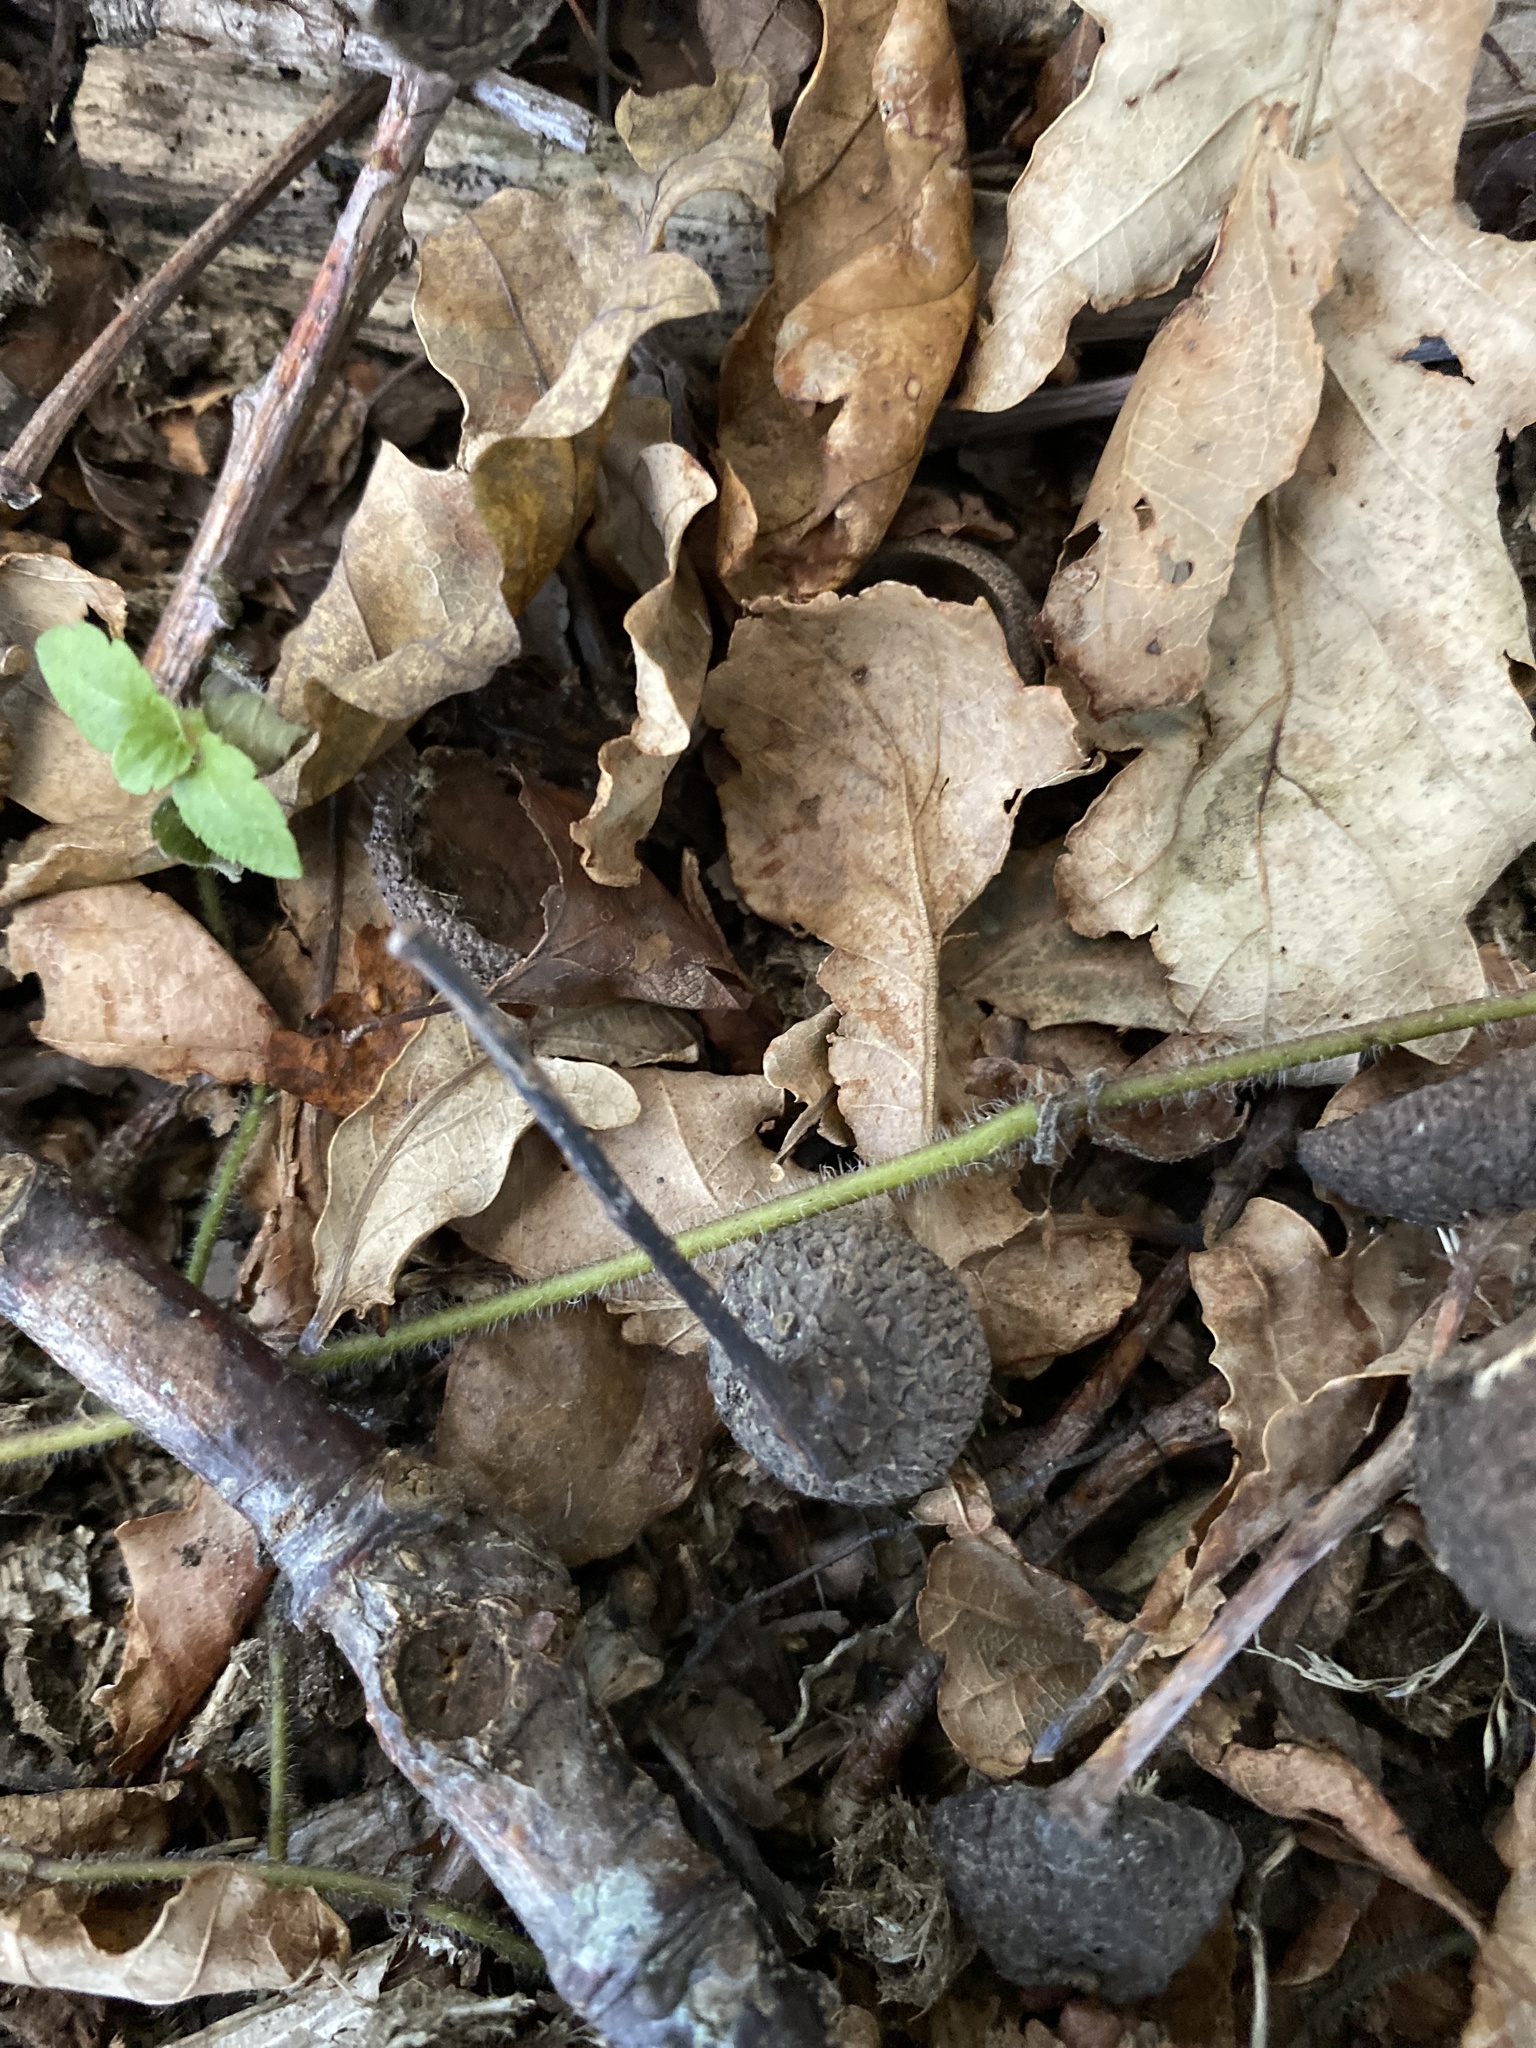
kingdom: Plantae
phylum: Tracheophyta
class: Magnoliopsida
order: Fagales
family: Fagaceae
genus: Quercus
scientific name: Quercus robur
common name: Pedunculate oak
